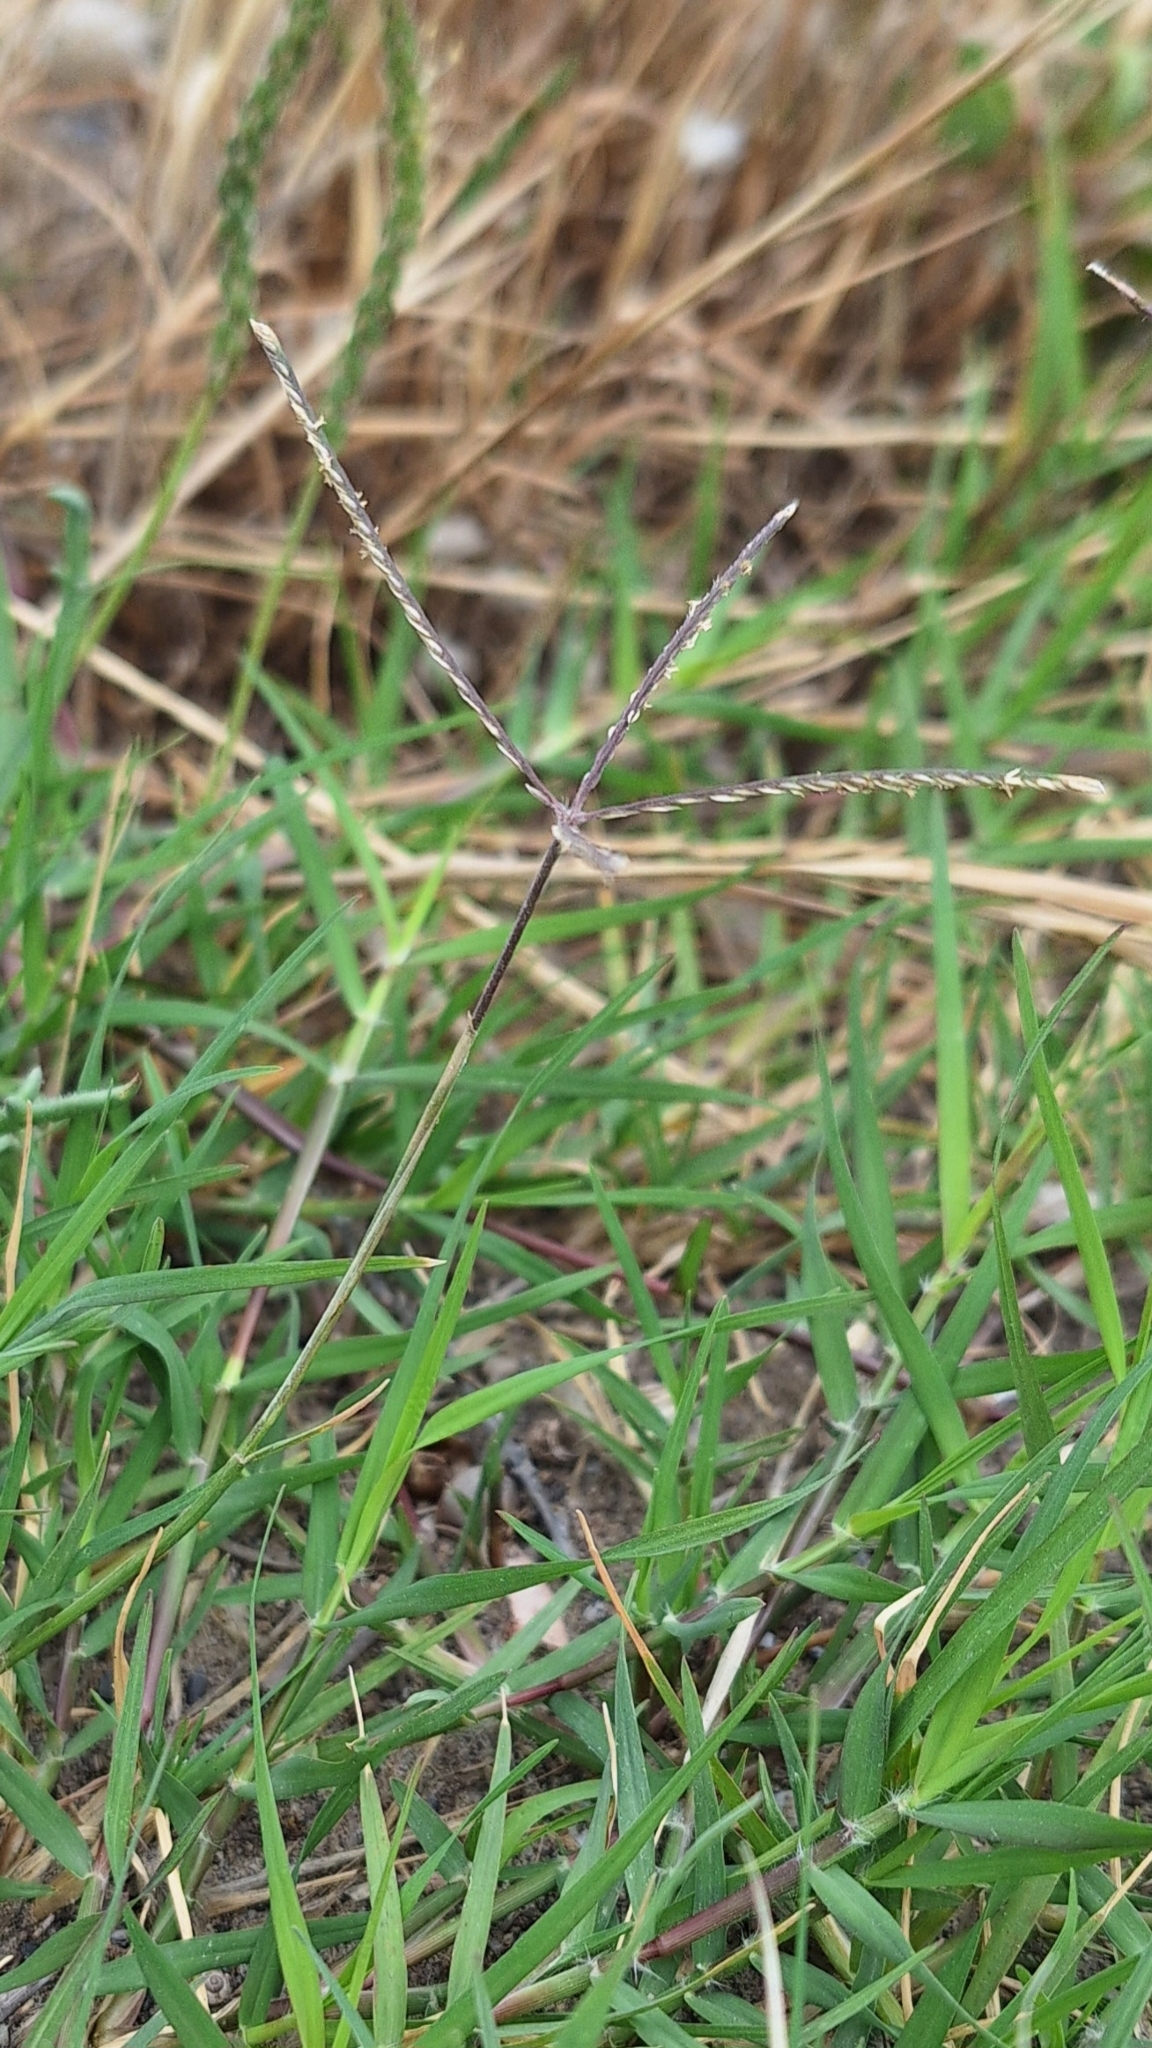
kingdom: Plantae
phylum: Tracheophyta
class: Liliopsida
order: Poales
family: Poaceae
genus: Cynodon
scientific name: Cynodon dactylon
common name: Bermuda grass
